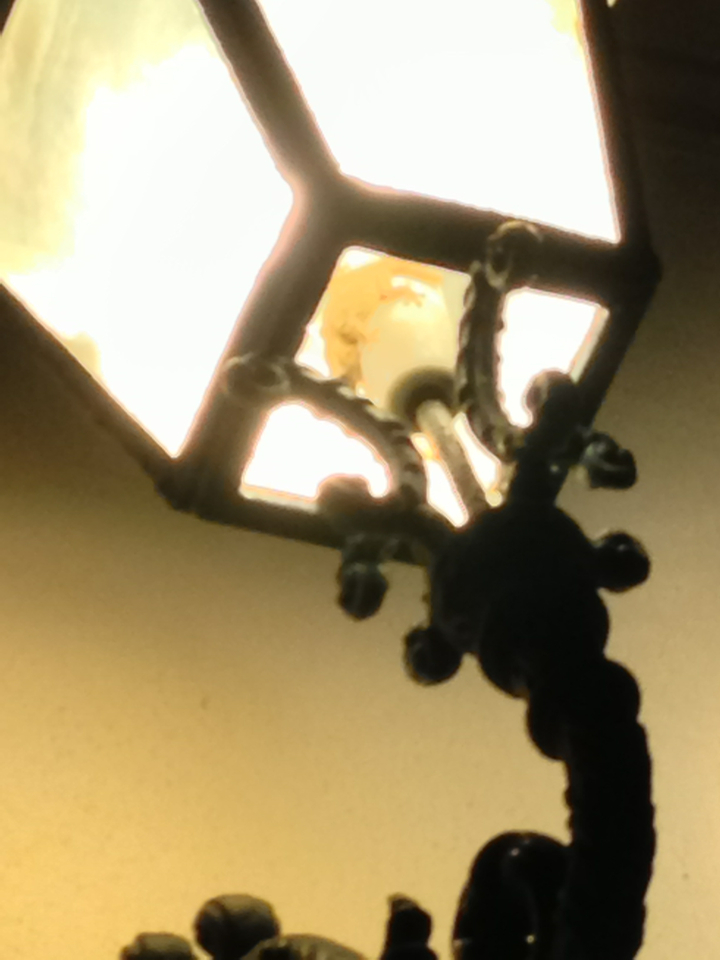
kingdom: Animalia
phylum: Chordata
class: Squamata
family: Phyllodactylidae
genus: Tarentola
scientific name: Tarentola mauritanica
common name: Moorish gecko
